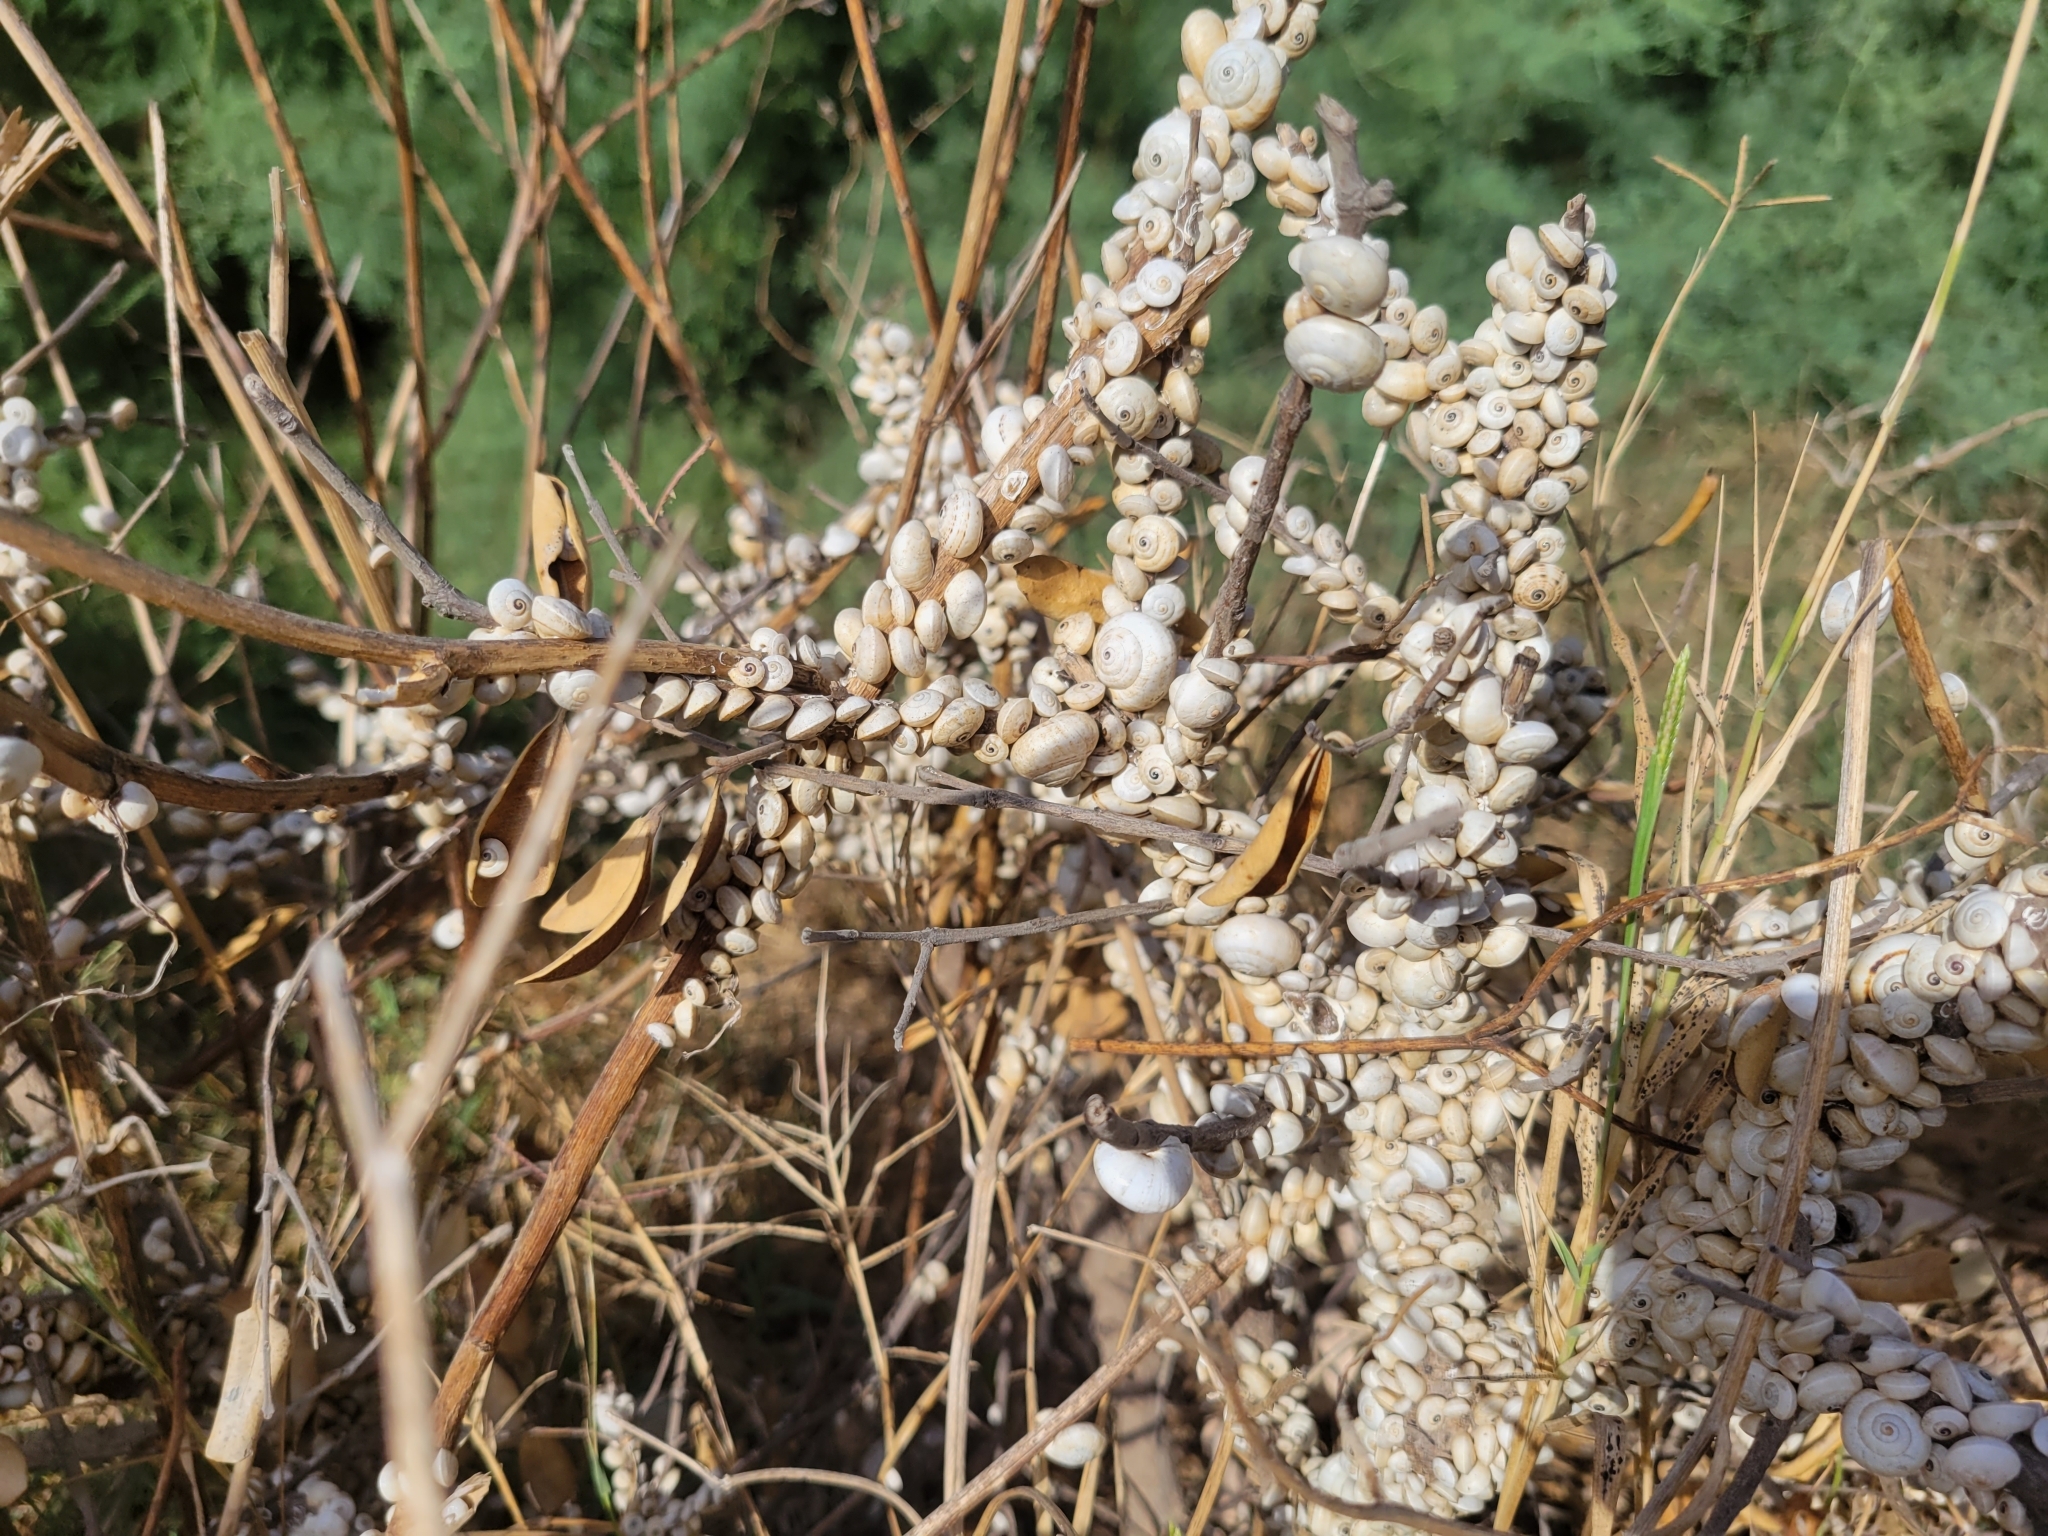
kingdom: Animalia
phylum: Mollusca
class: Gastropoda
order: Stylommatophora
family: Helicidae
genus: Theba
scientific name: Theba pisana
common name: White snail
